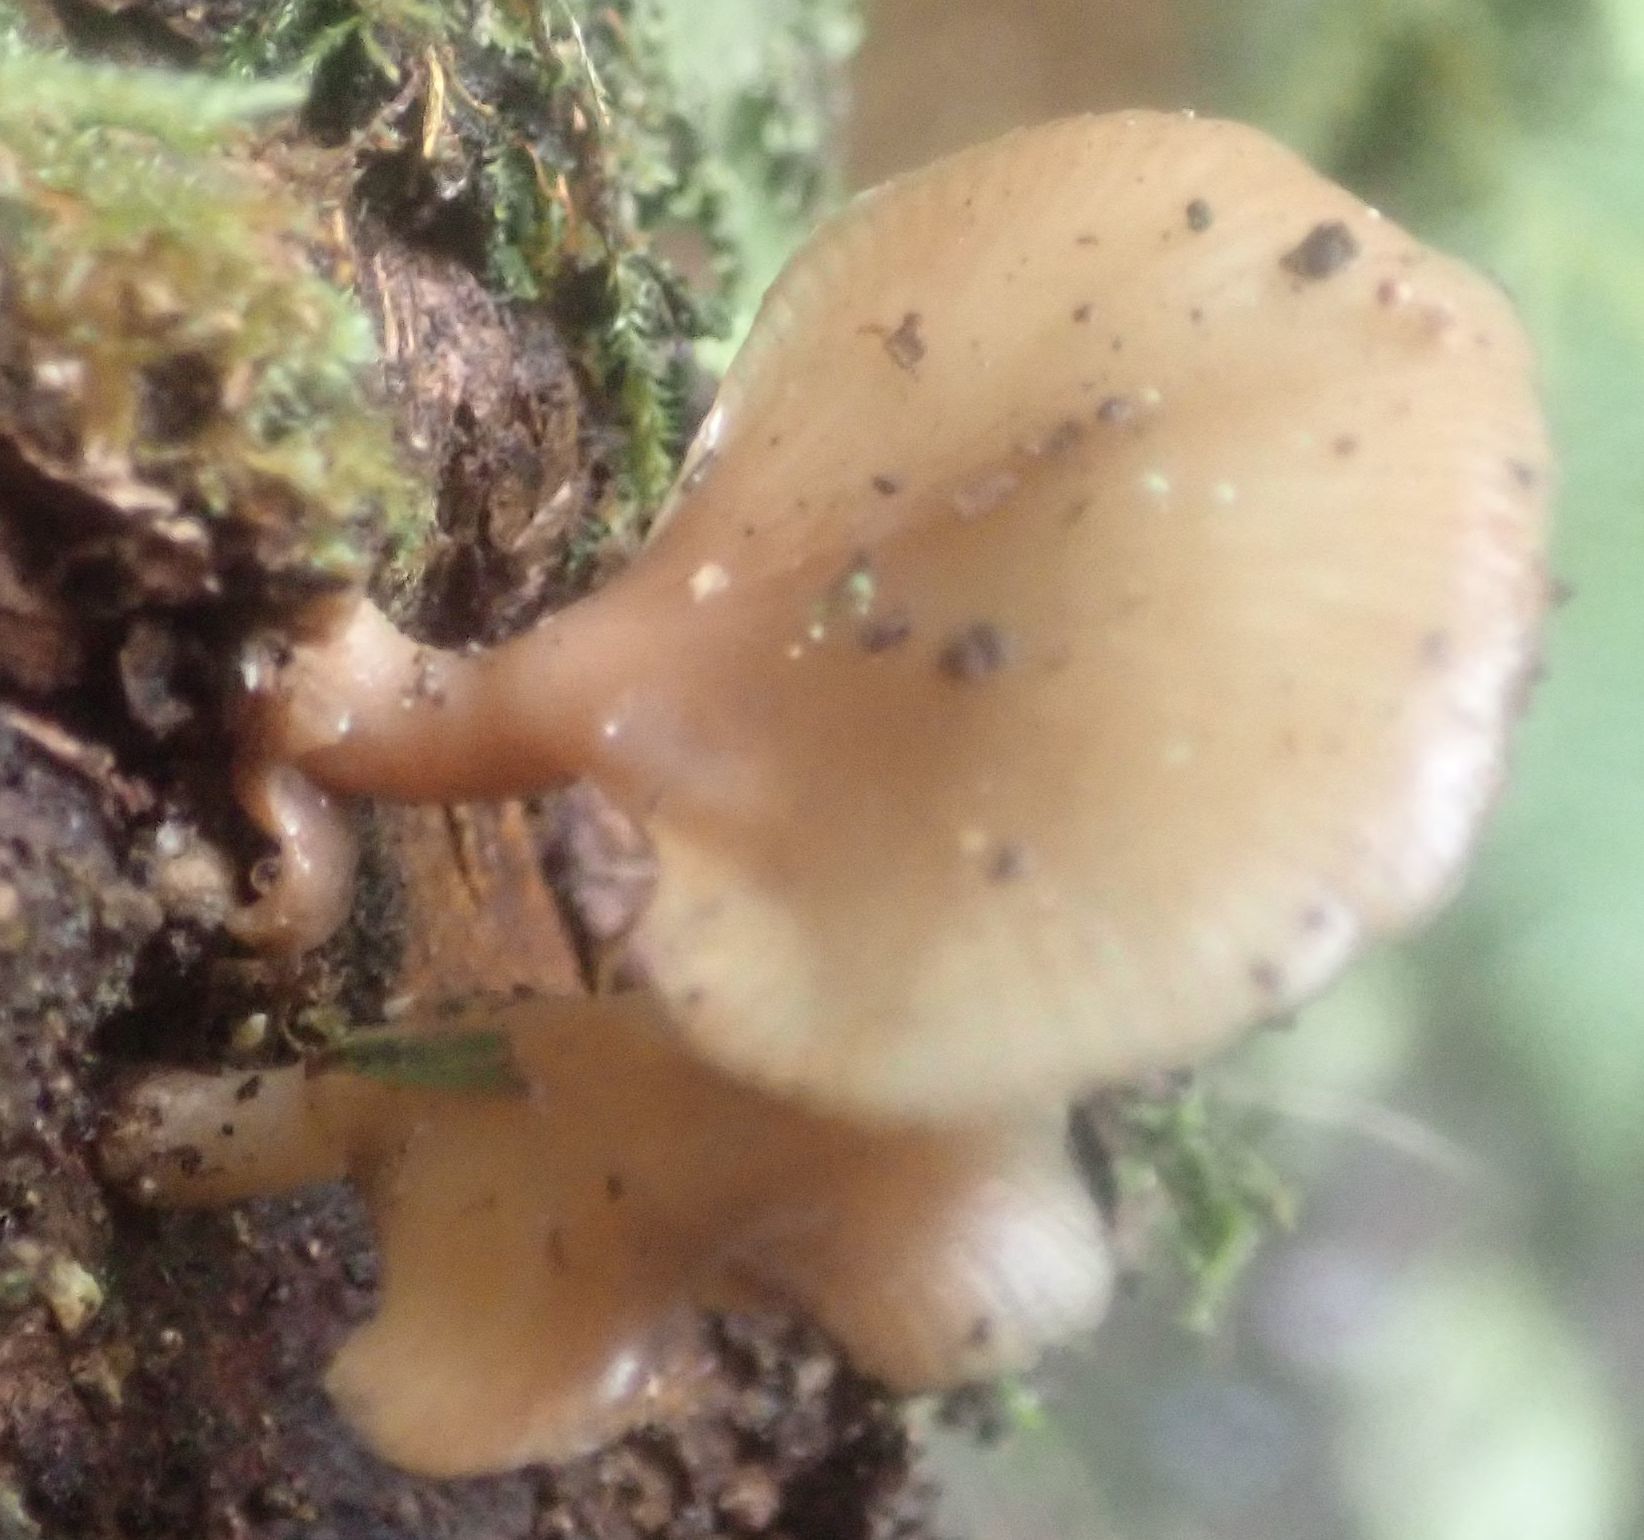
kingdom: Fungi
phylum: Basidiomycota
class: Agaricomycetes
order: Agaricales
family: Mycenaceae
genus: Panellus
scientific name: Panellus longinquus
